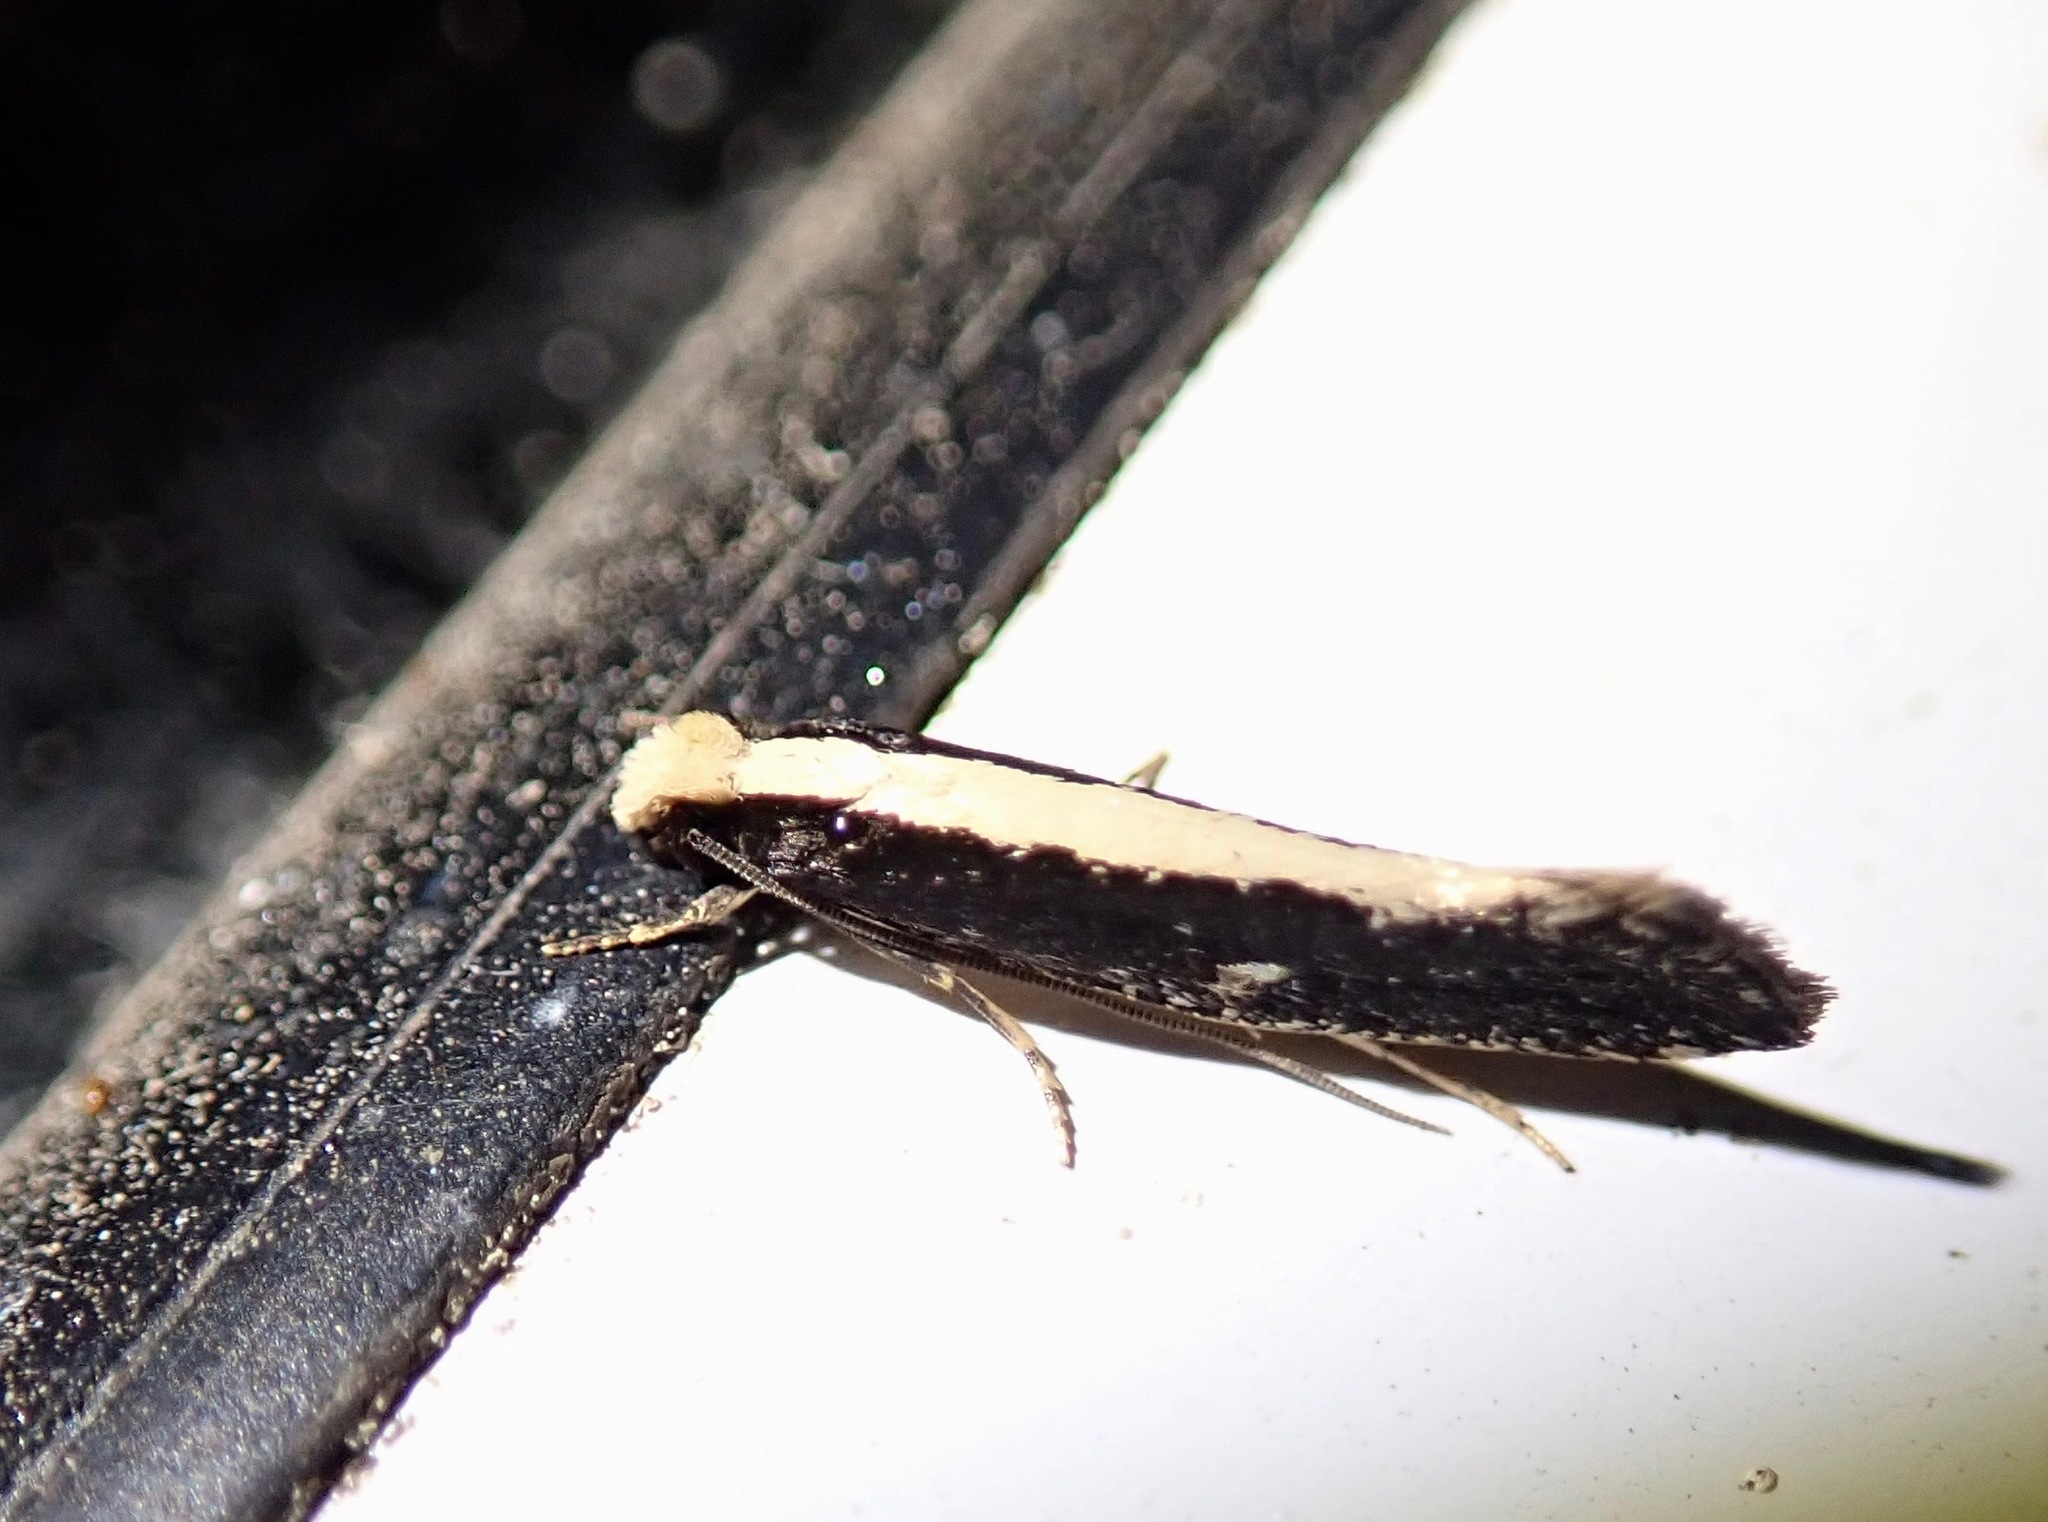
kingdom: Animalia
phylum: Arthropoda
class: Insecta
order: Lepidoptera
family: Tineidae
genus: Monopis
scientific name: Monopis crocicapitella
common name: Moth
